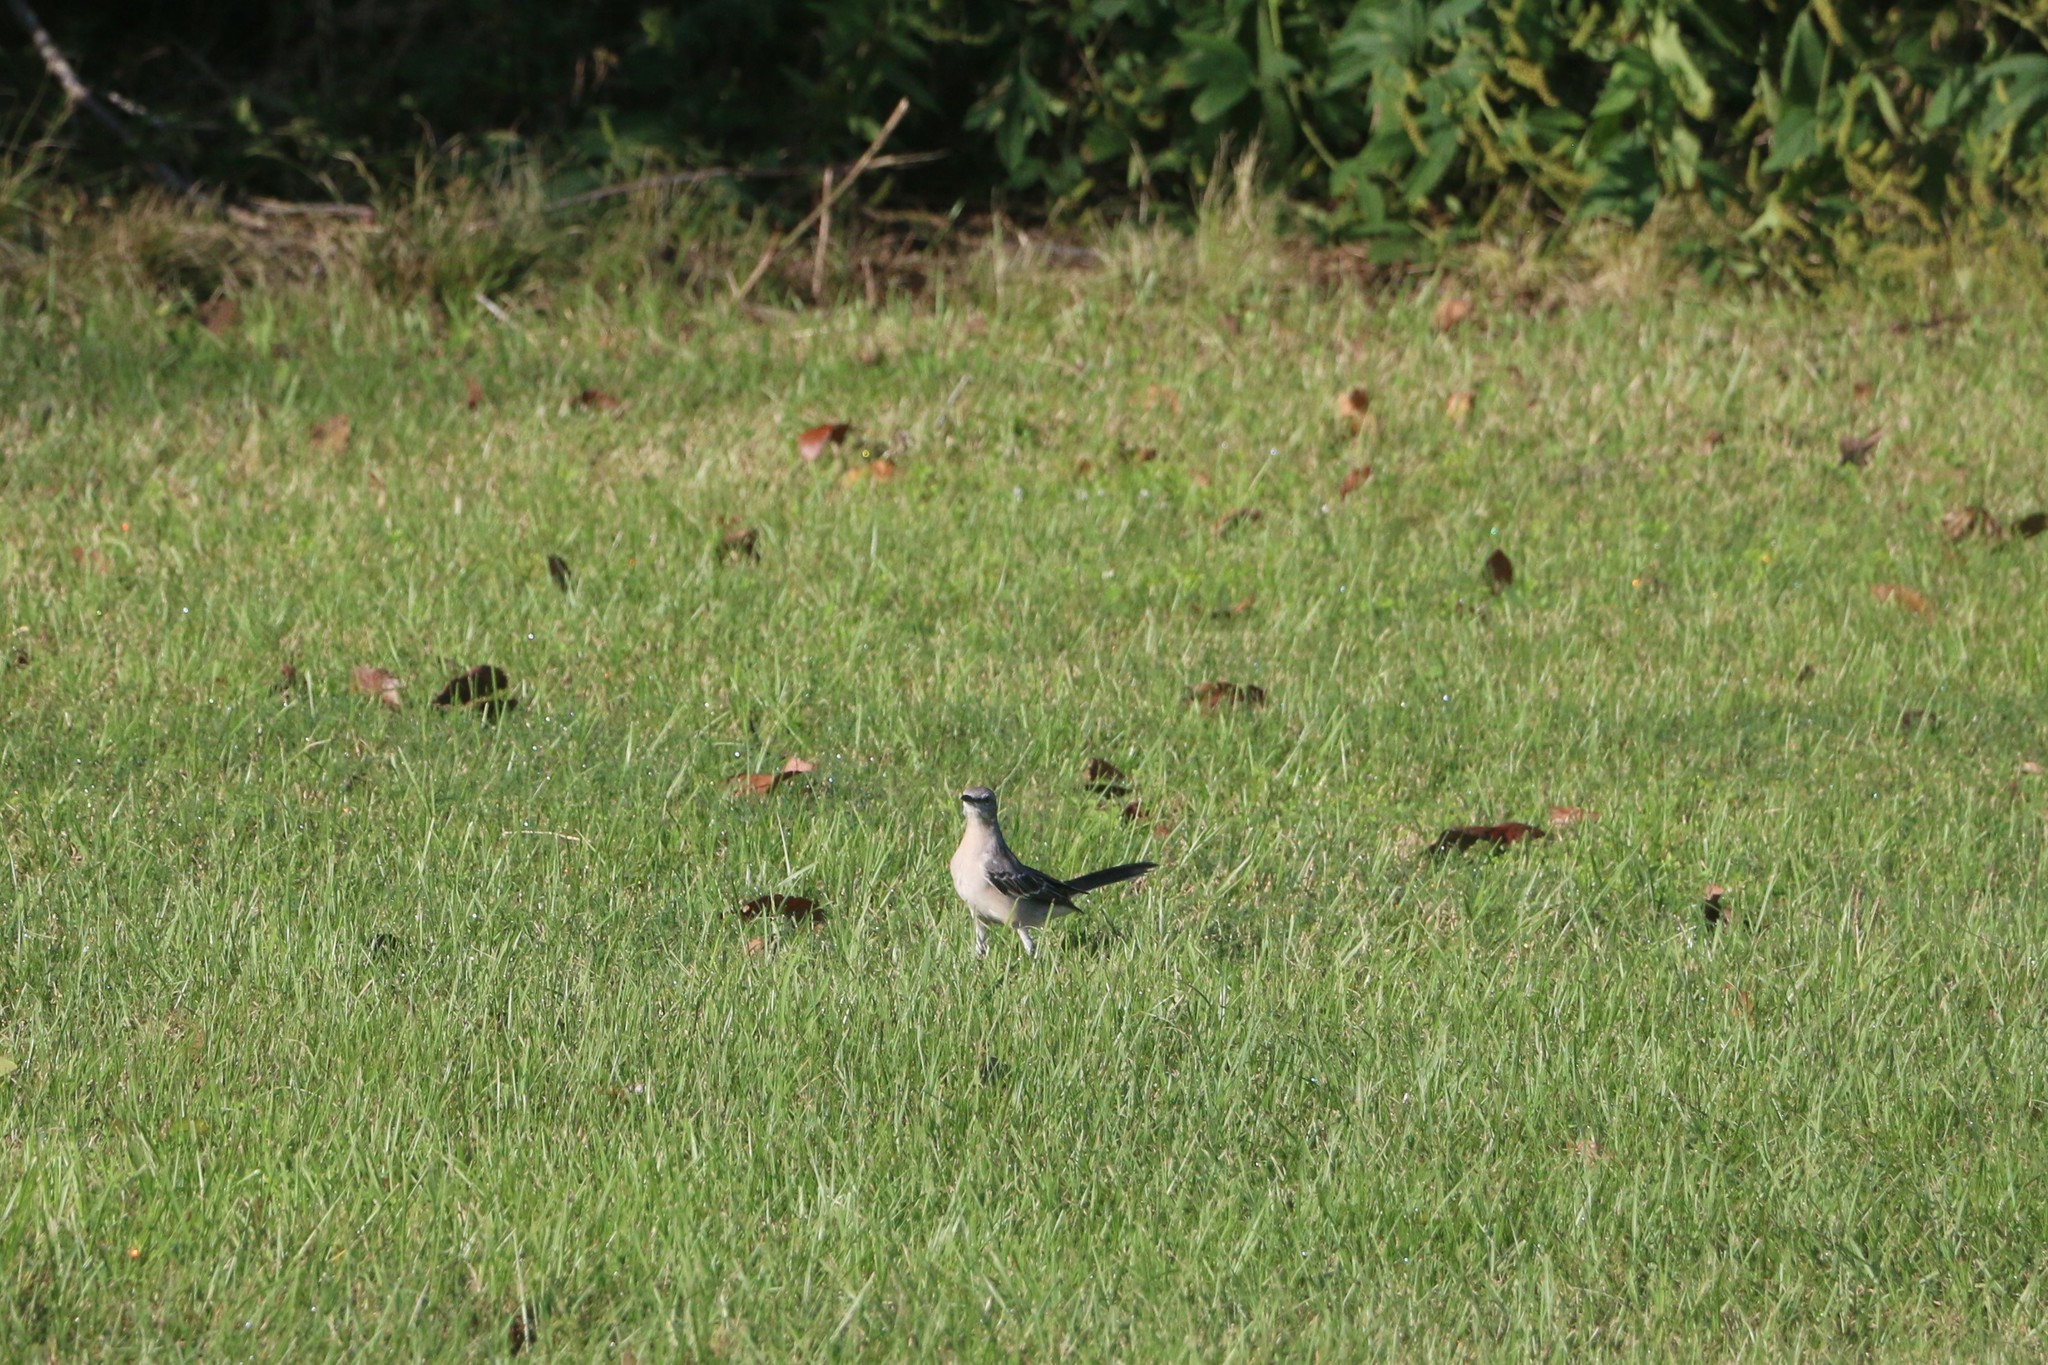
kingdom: Animalia
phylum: Chordata
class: Aves
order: Passeriformes
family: Mimidae
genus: Mimus
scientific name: Mimus polyglottos
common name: Northern mockingbird
